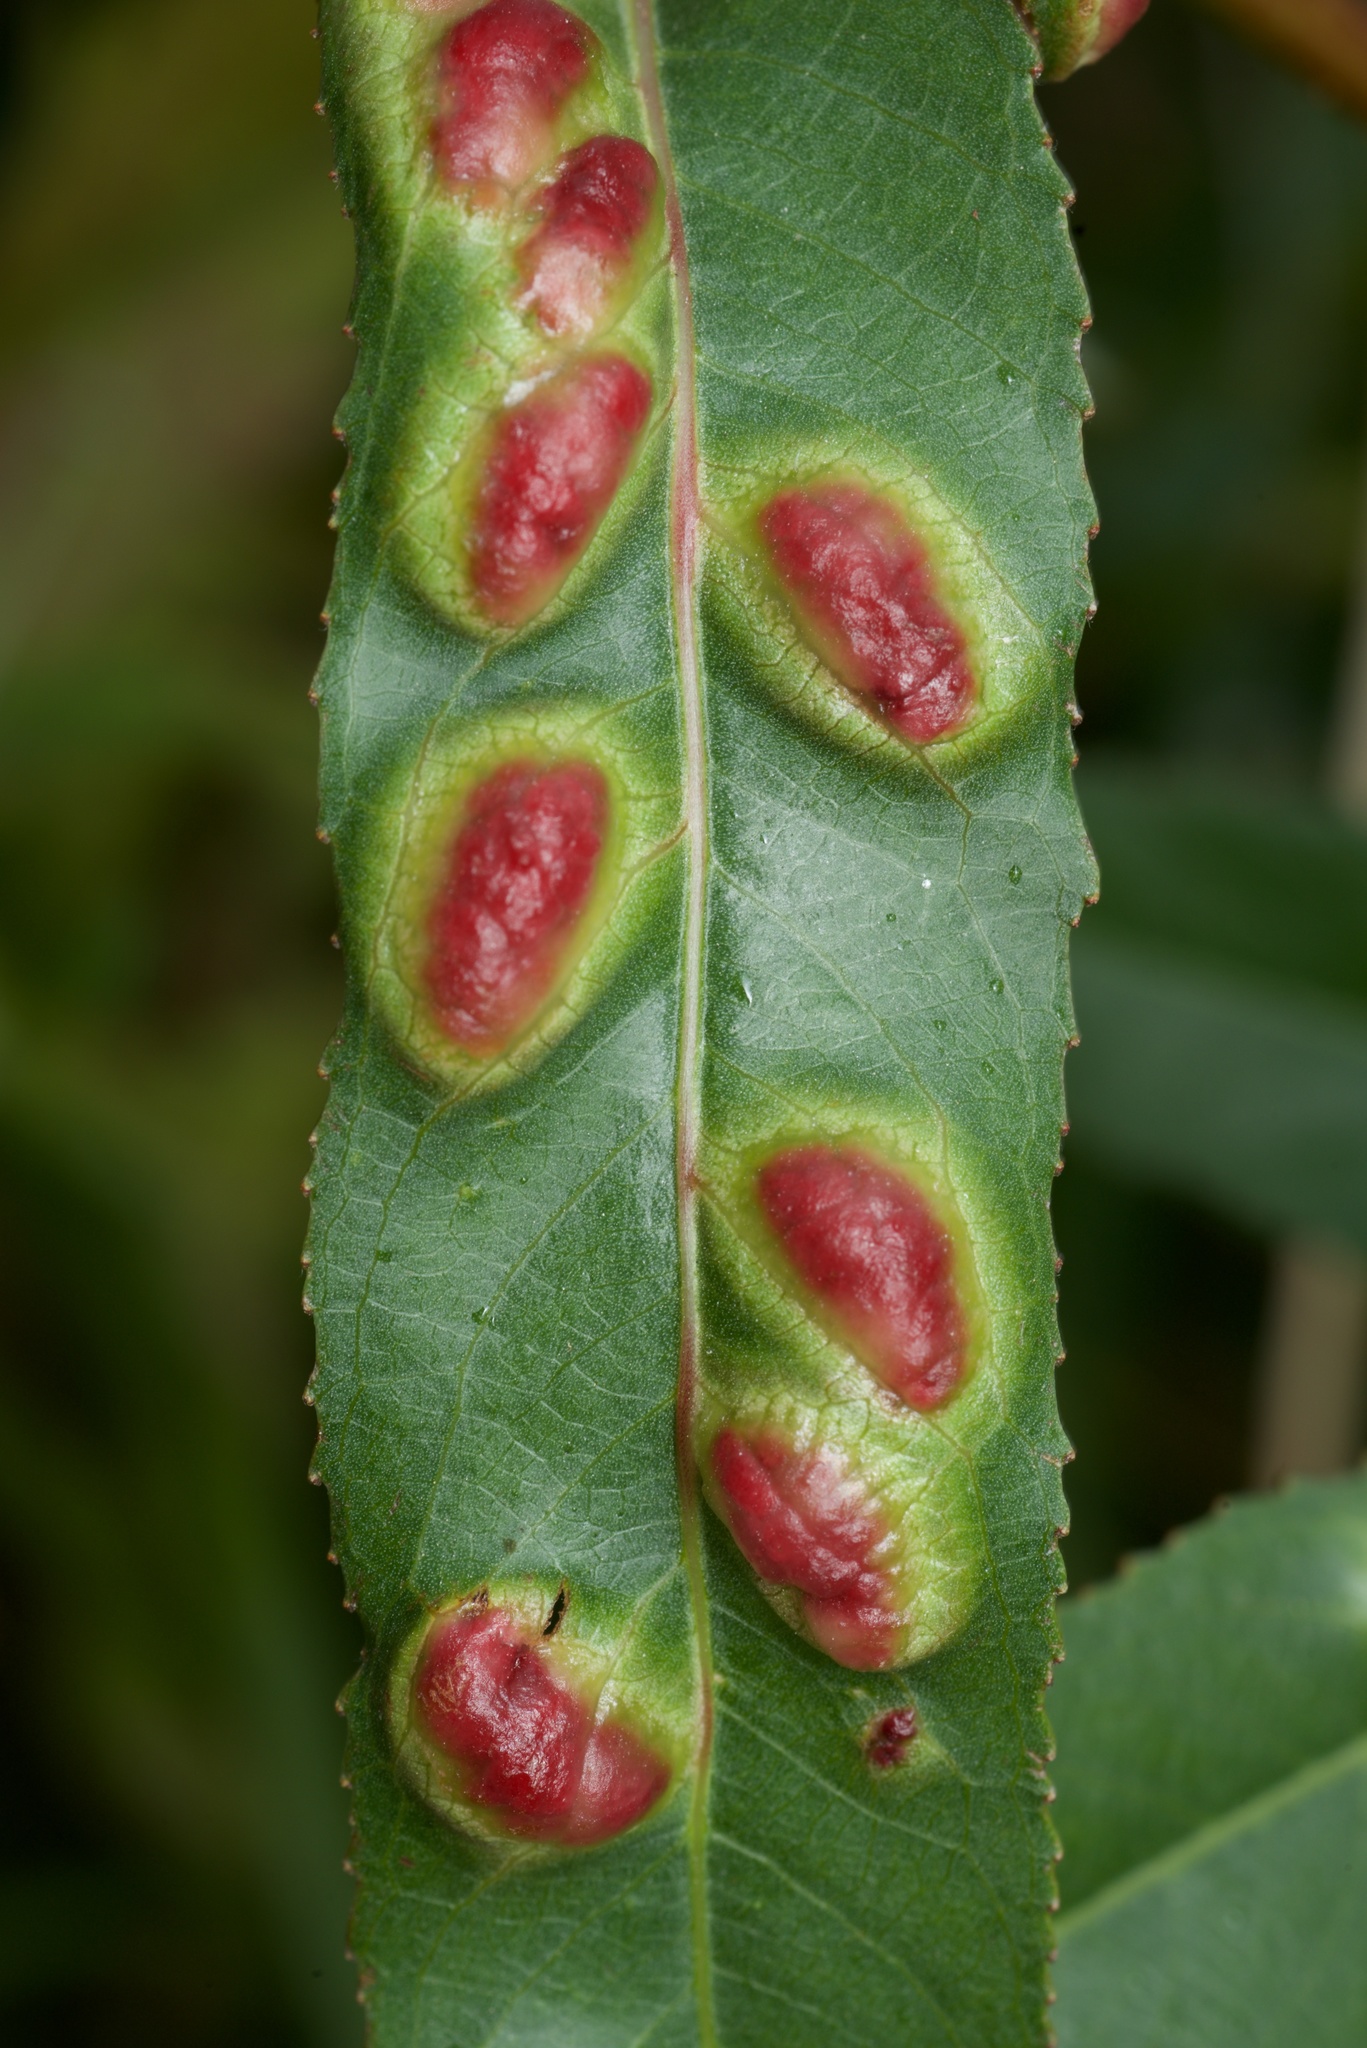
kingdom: Animalia
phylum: Arthropoda
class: Insecta
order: Hymenoptera
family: Tenthredinidae
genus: Pontania
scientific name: Pontania proxima
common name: Common sawfly
